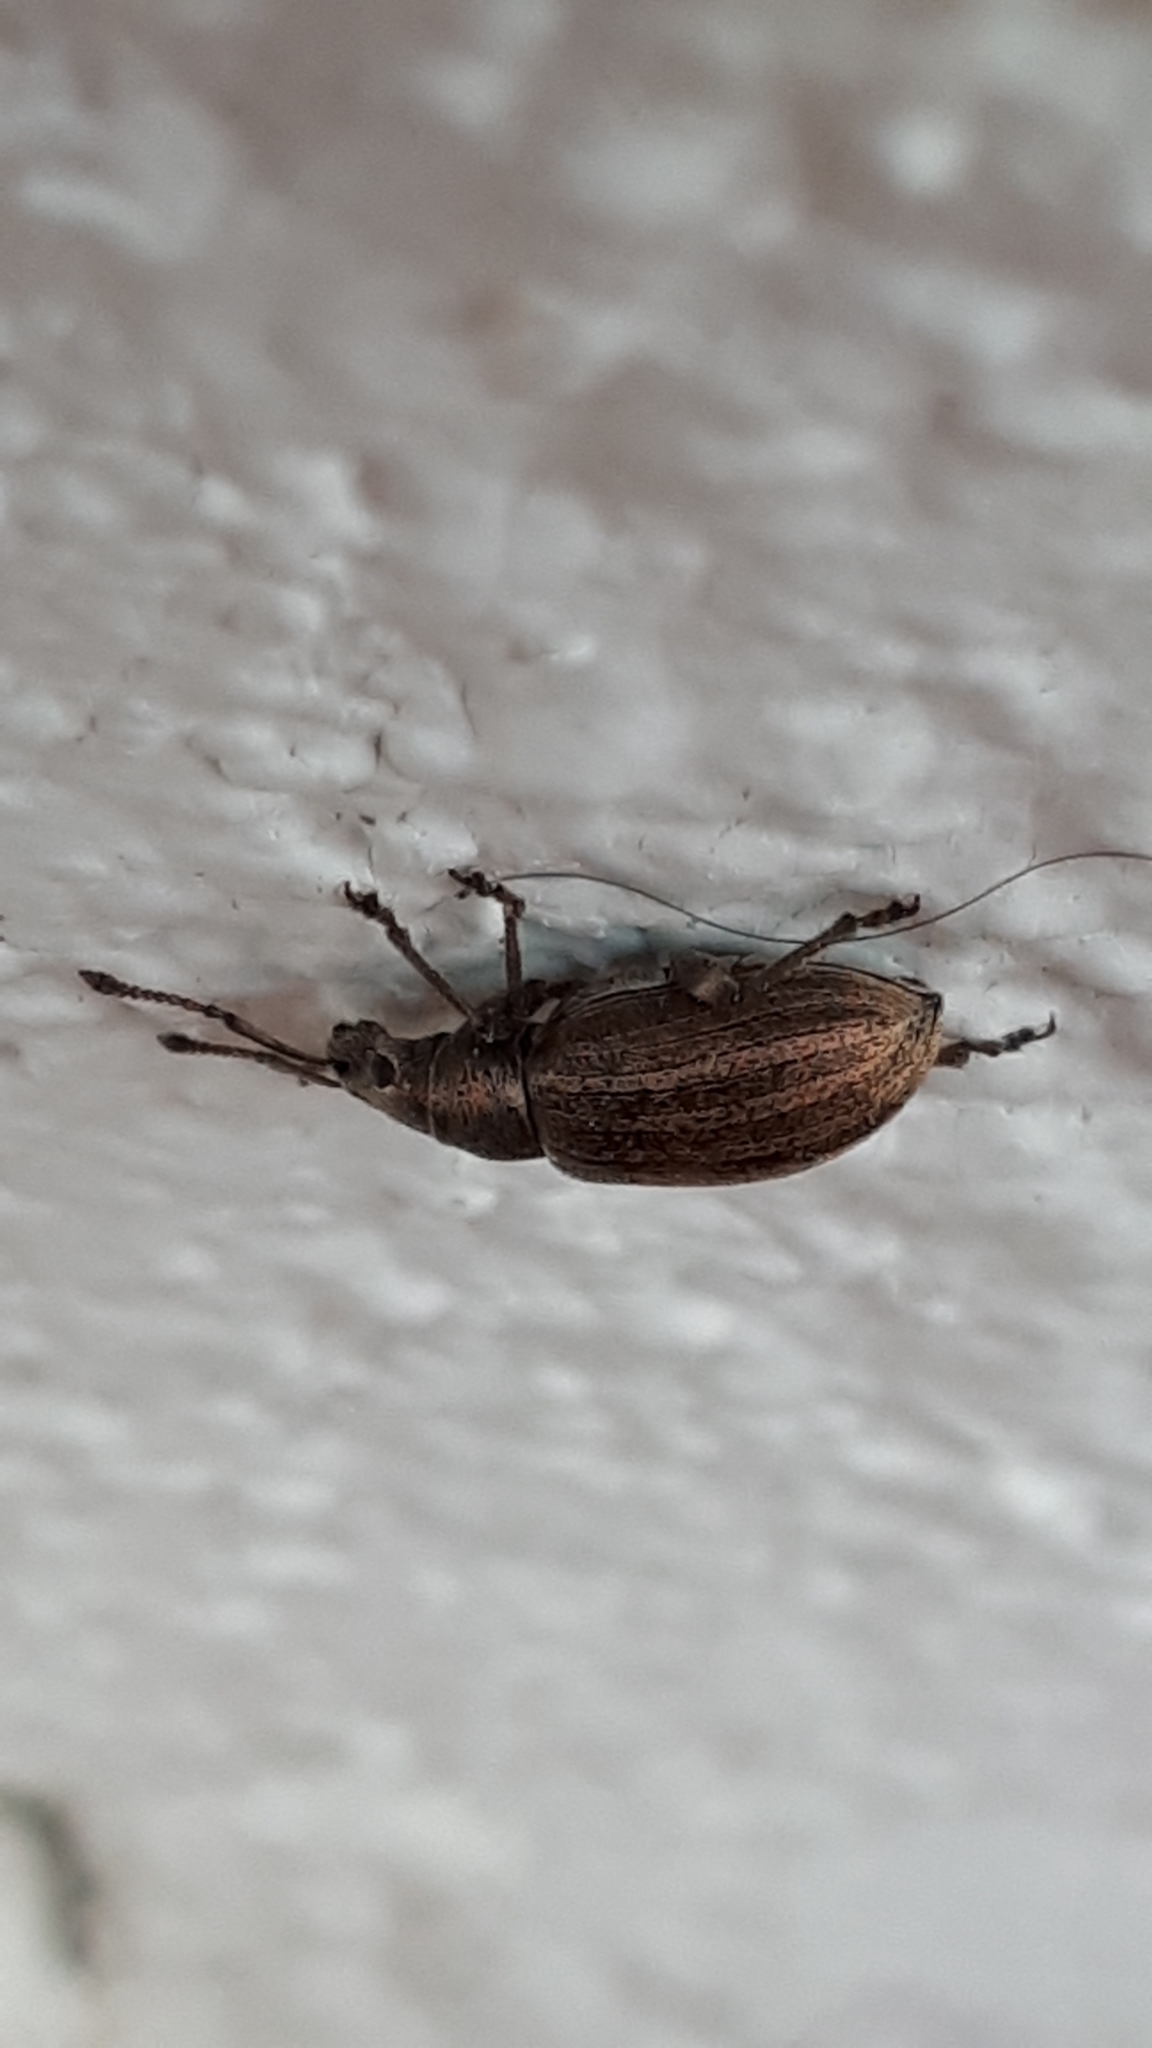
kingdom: Animalia
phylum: Arthropoda
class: Insecta
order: Coleoptera
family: Curculionidae
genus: Phyllobius
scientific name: Phyllobius pyri
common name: Common leaf weevil
